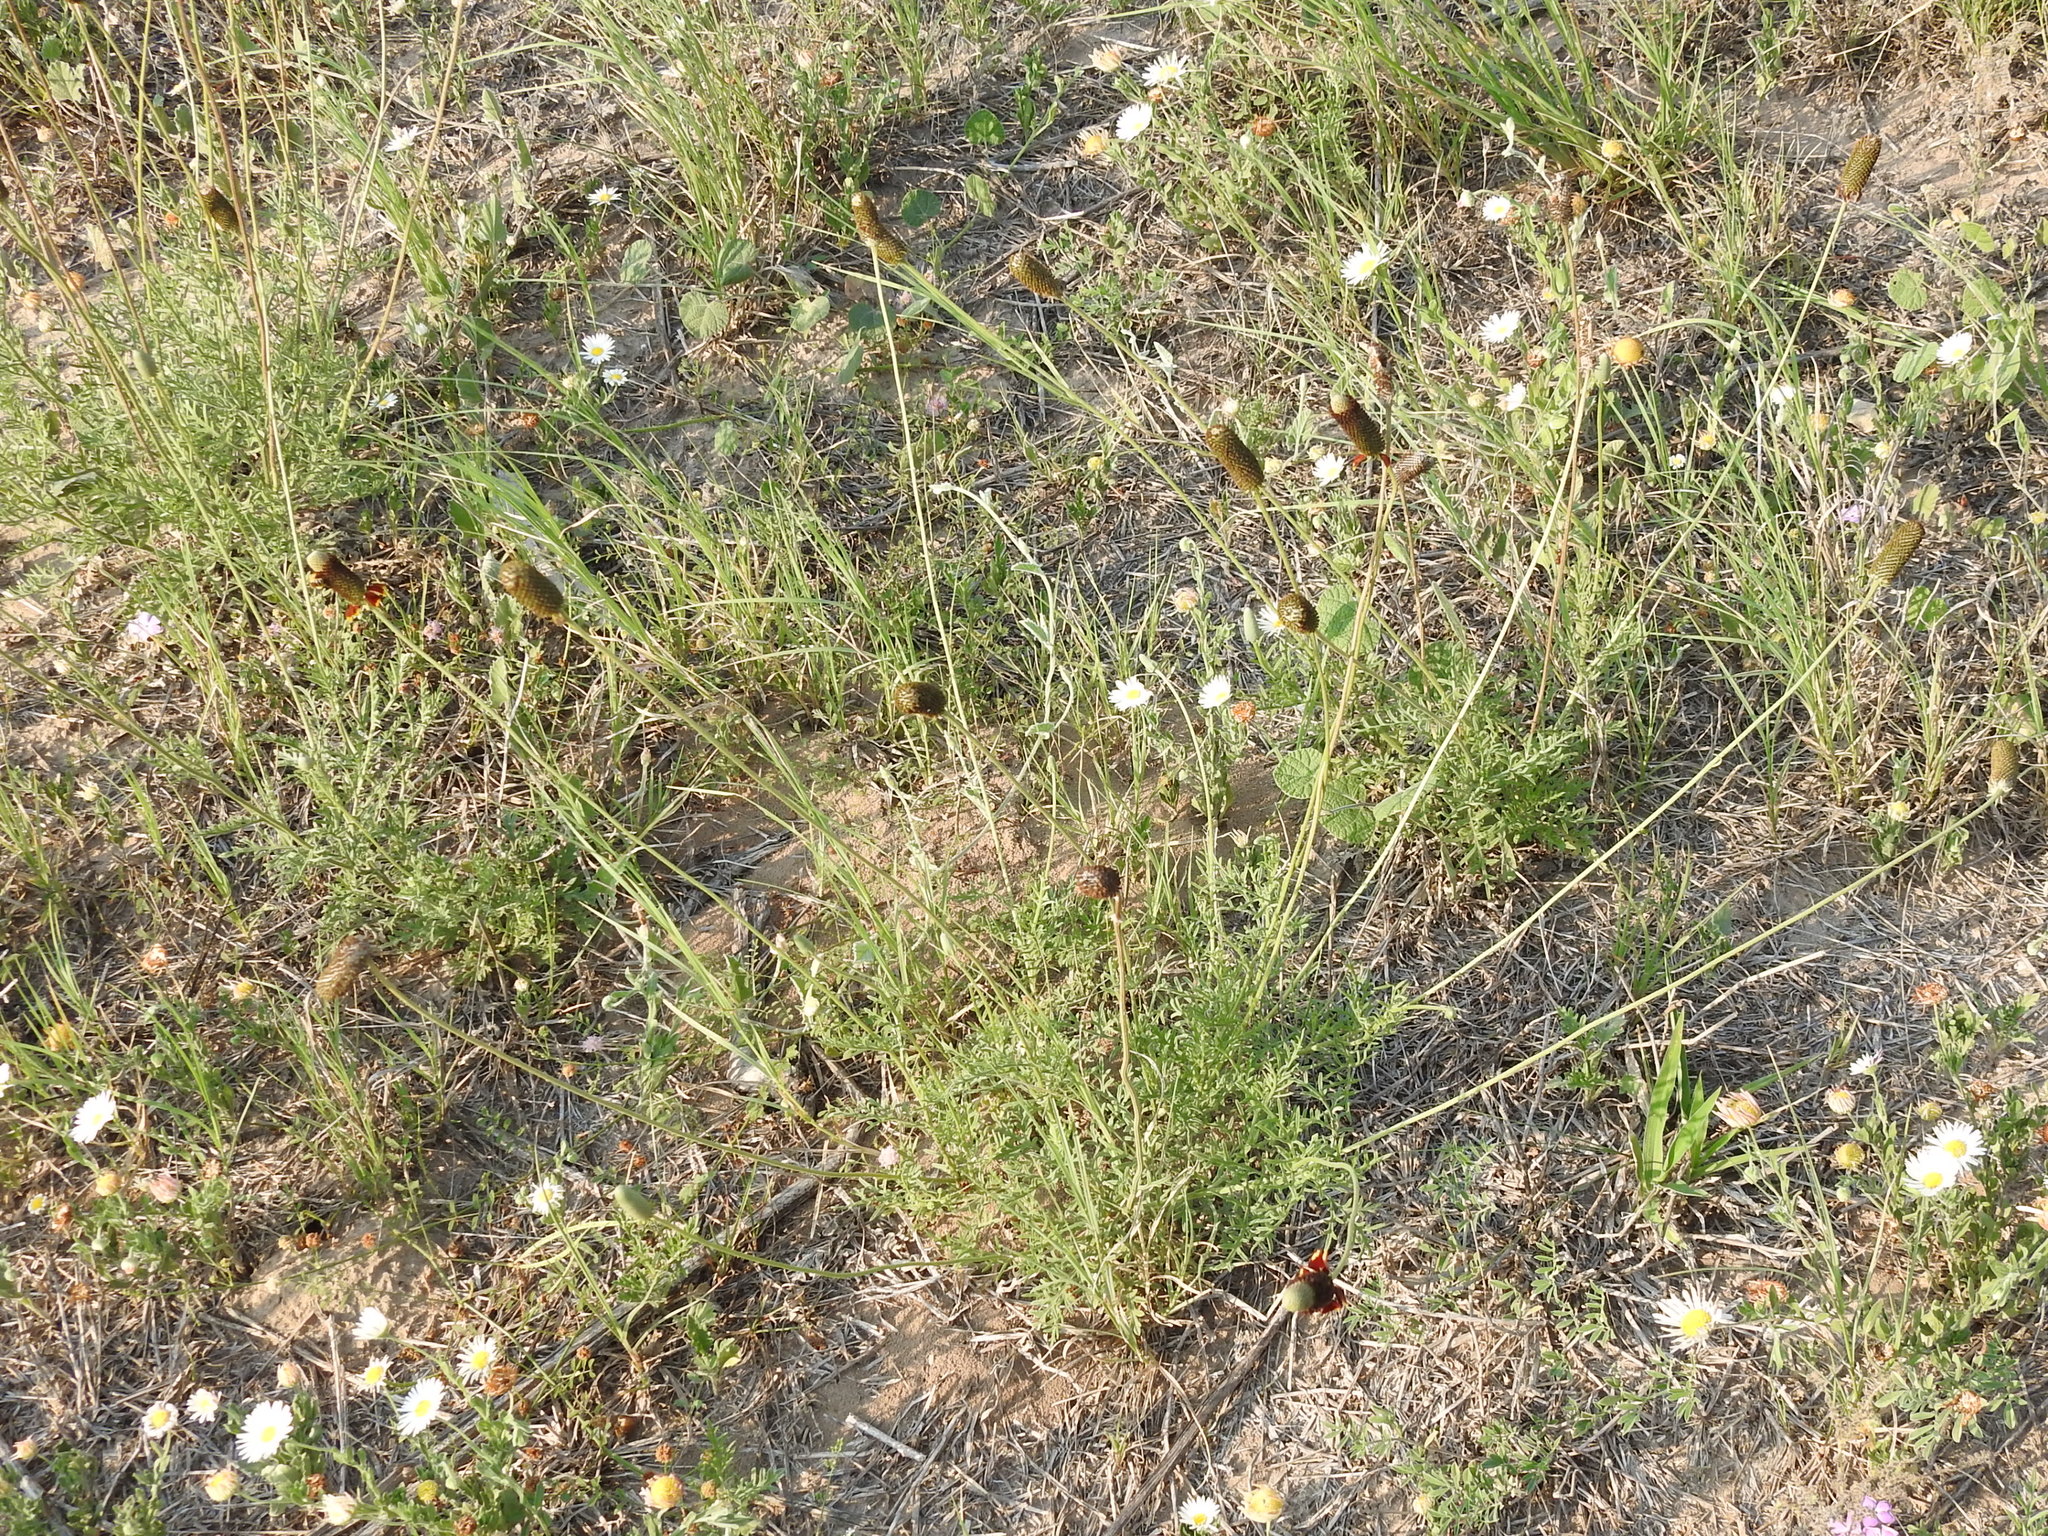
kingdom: Plantae
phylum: Tracheophyta
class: Magnoliopsida
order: Asterales
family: Asteraceae
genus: Ratibida
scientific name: Ratibida peduncularis
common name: Naked prairie-coneflower
